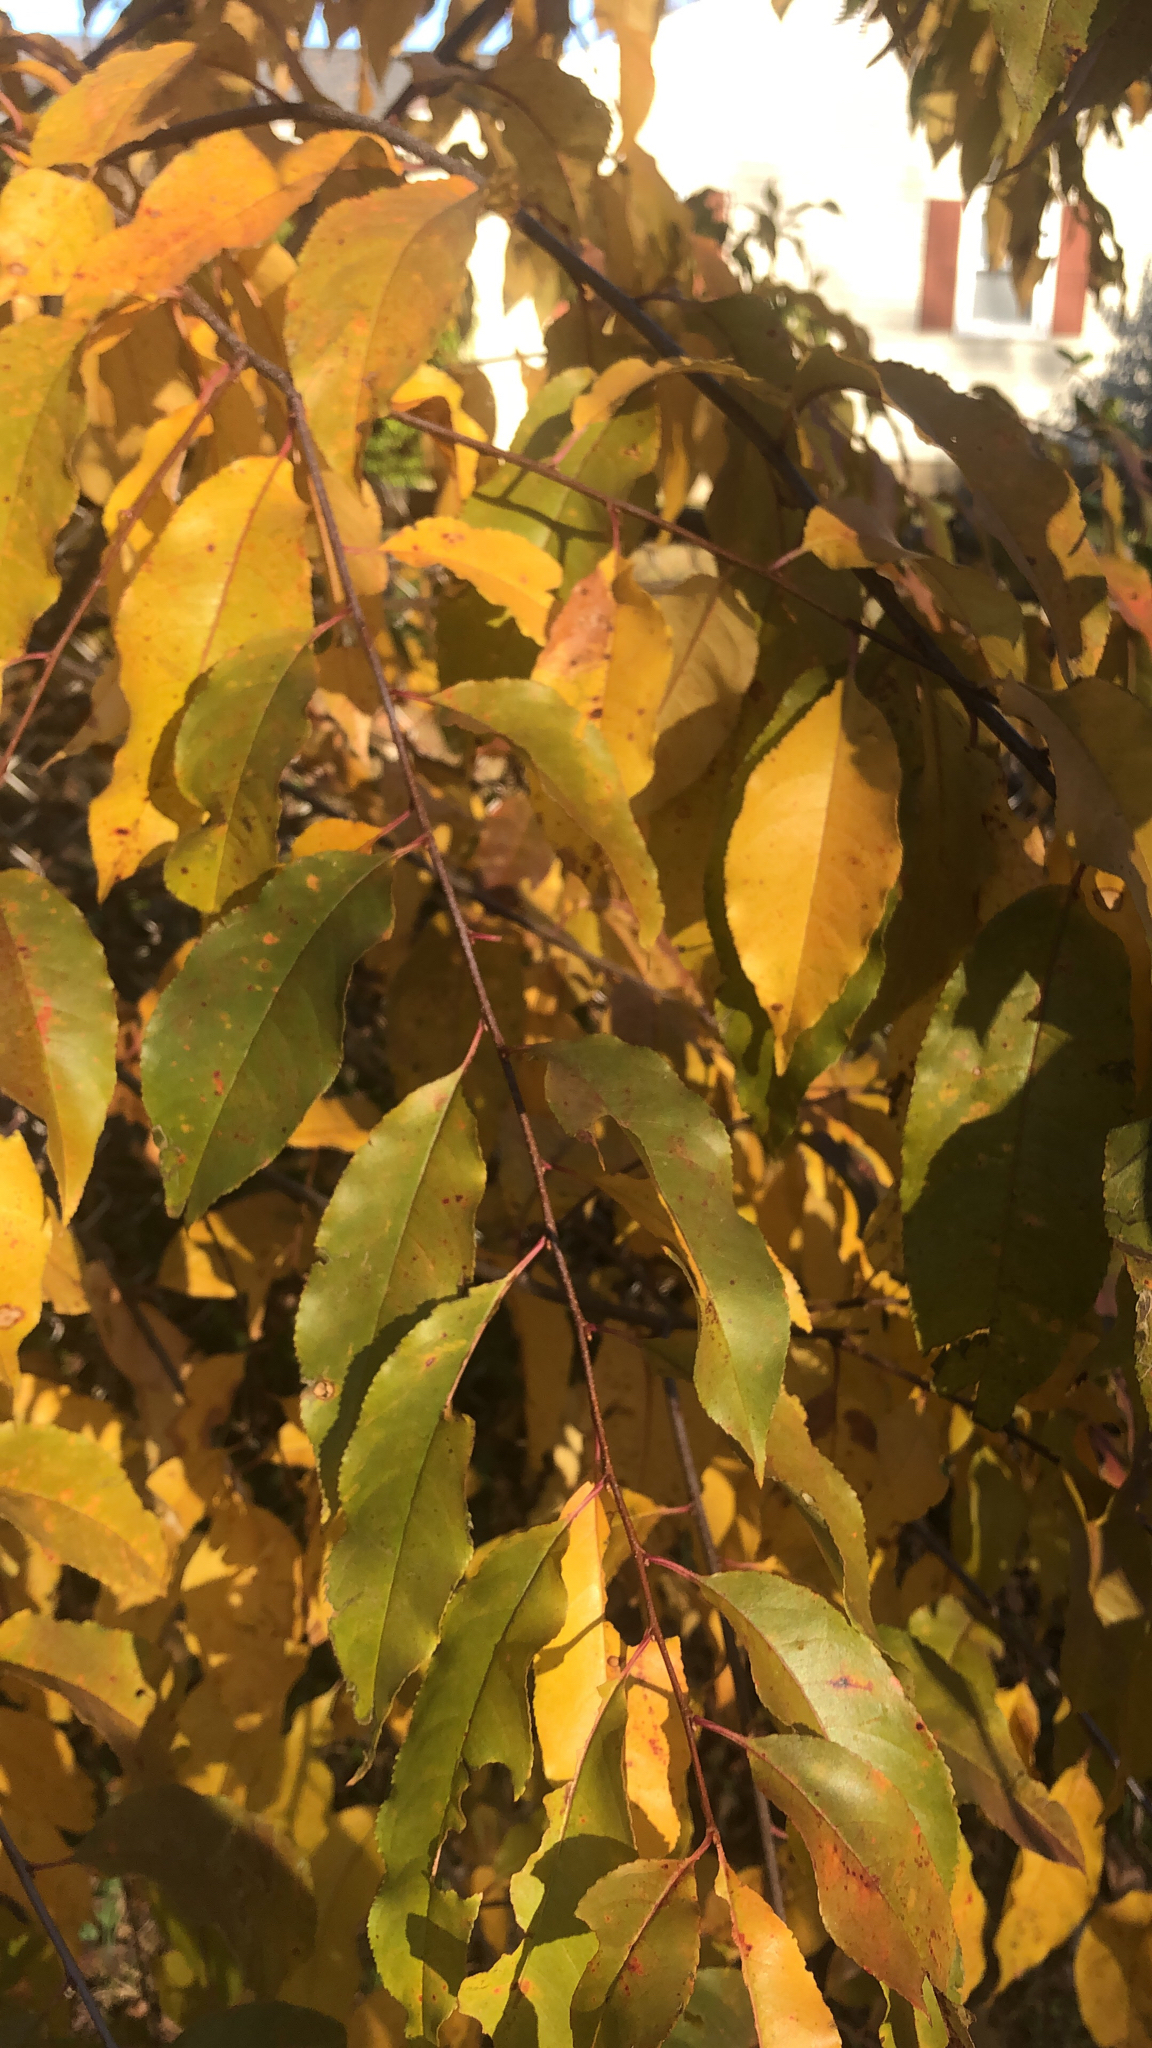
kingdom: Plantae
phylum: Tracheophyta
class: Magnoliopsida
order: Rosales
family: Rosaceae
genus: Prunus
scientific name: Prunus serotina
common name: Black cherry
